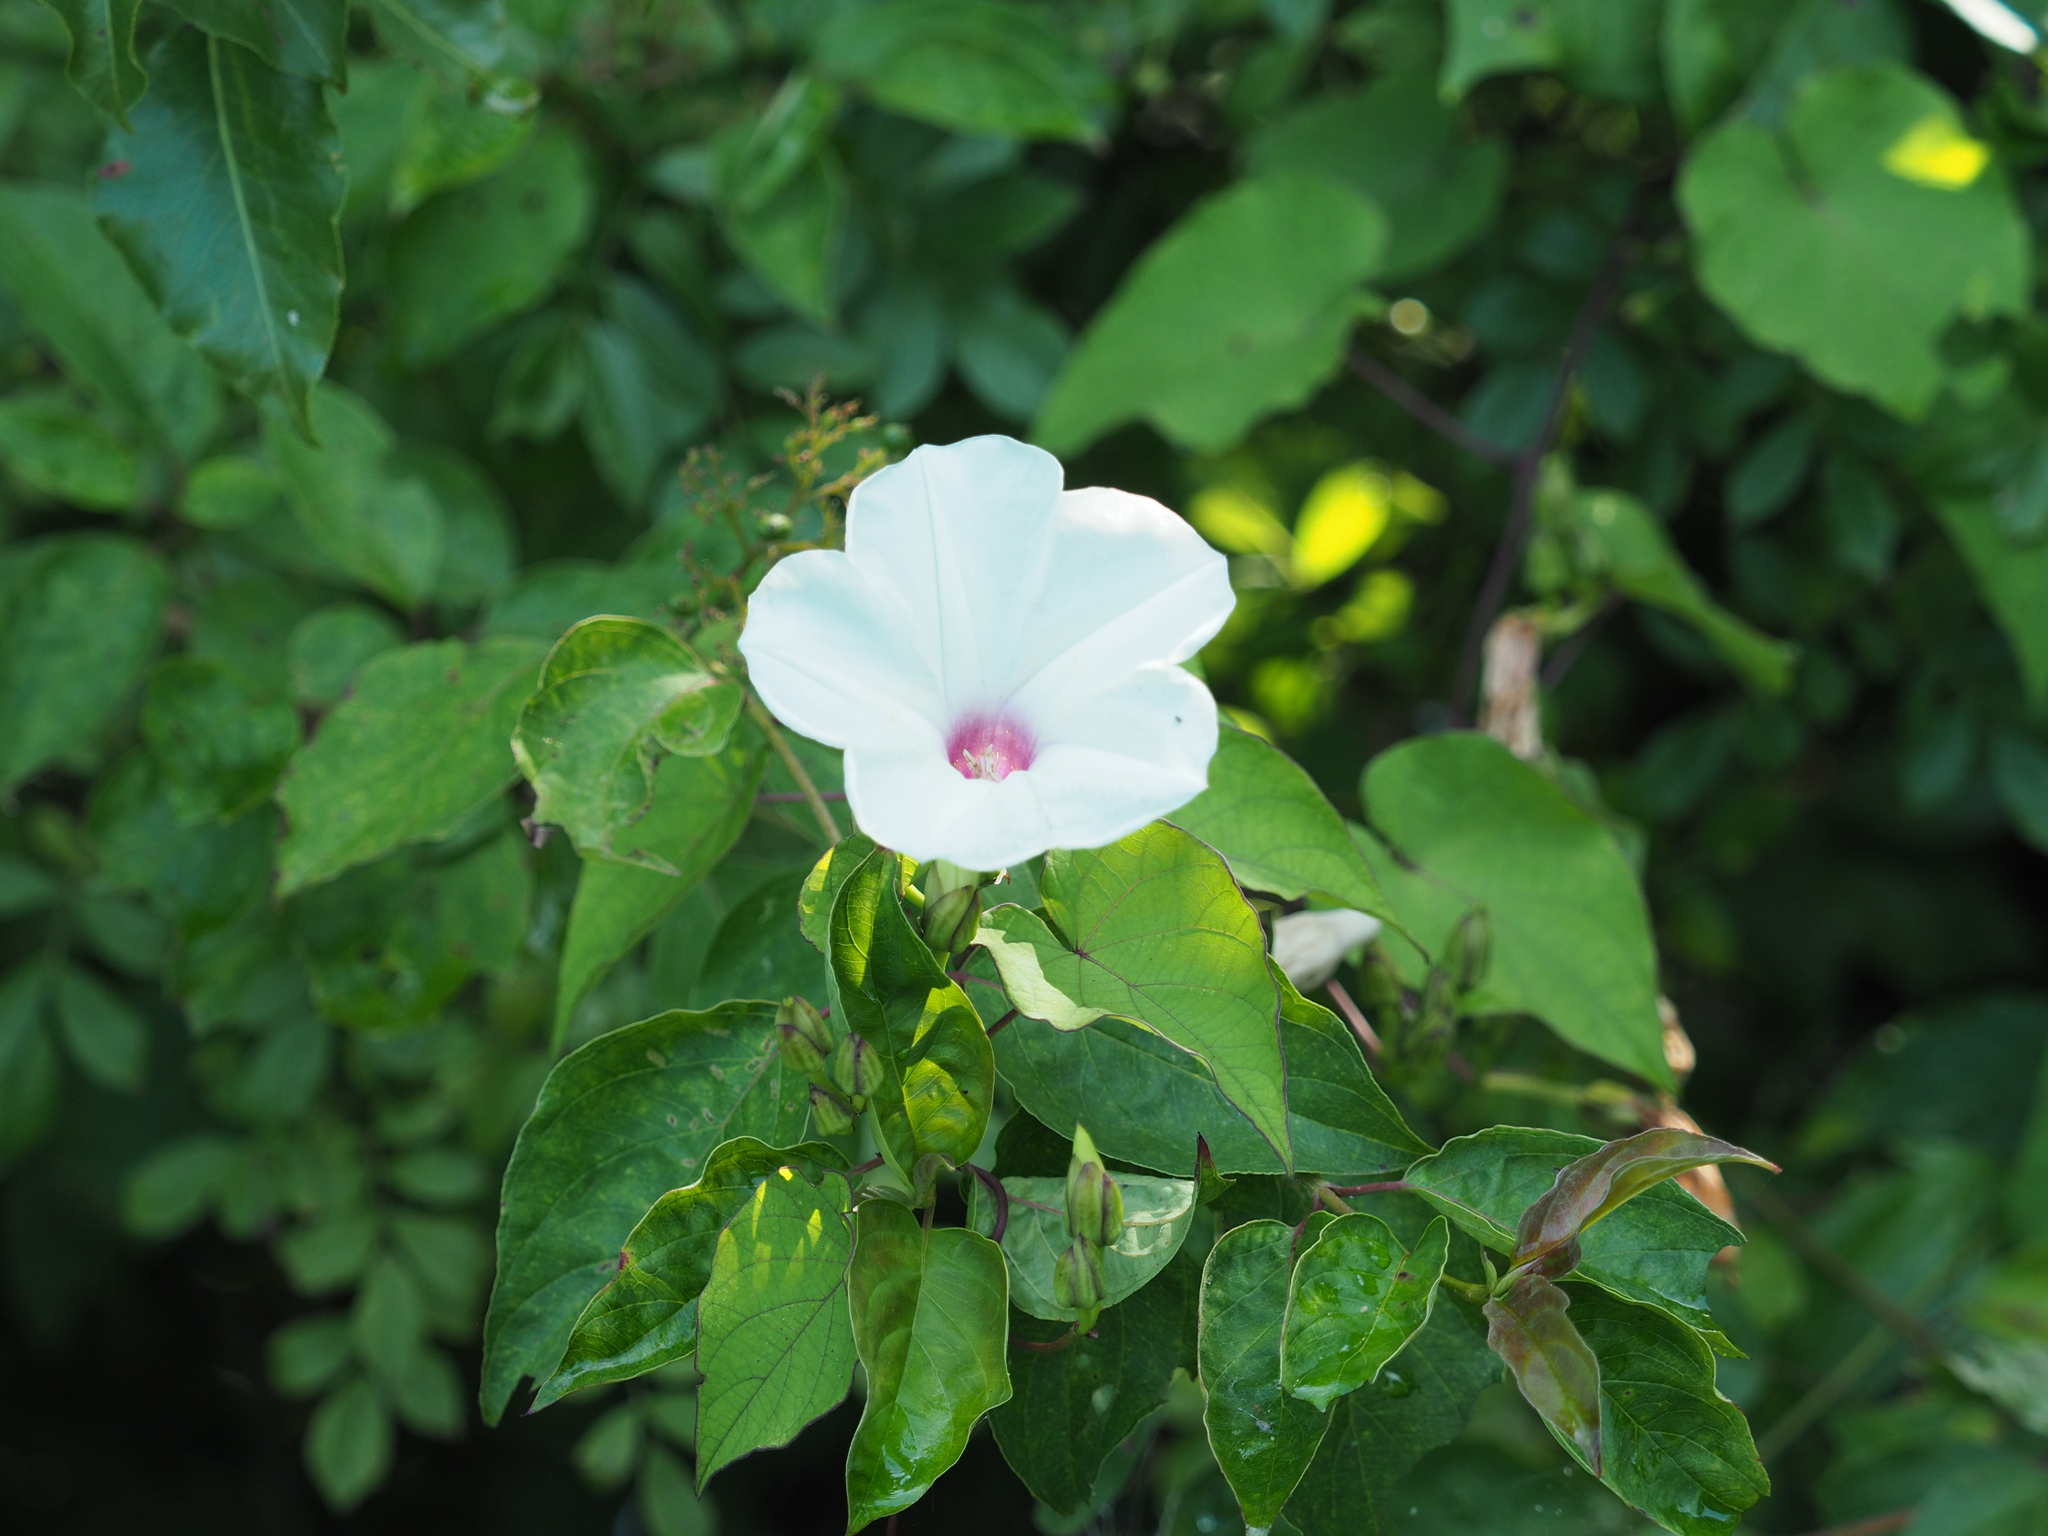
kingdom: Plantae
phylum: Tracheophyta
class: Magnoliopsida
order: Solanales
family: Convolvulaceae
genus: Ipomoea
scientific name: Ipomoea pandurata
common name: Man-of-the-earth
